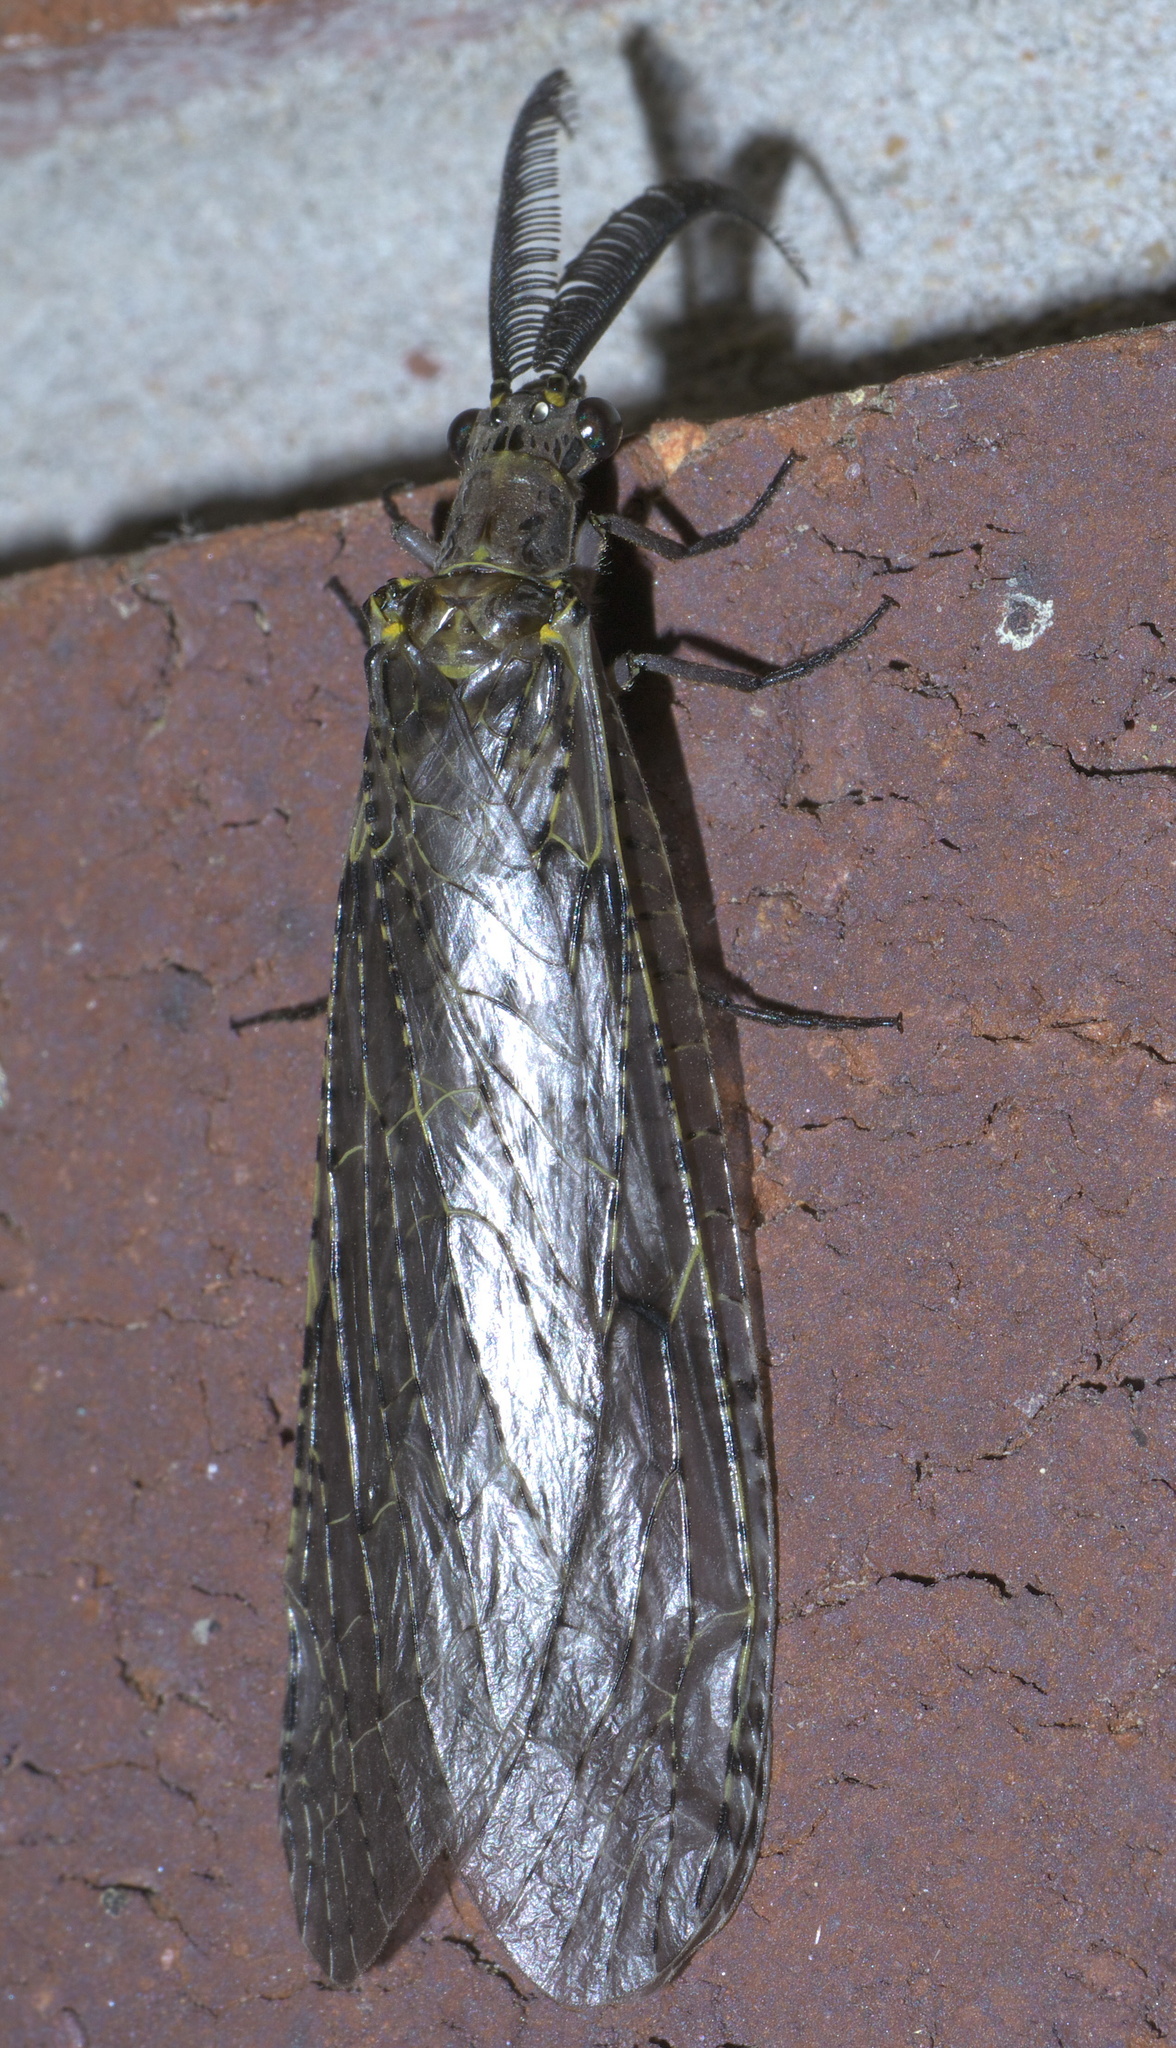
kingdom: Animalia
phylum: Arthropoda
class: Insecta
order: Megaloptera
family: Corydalidae
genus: Chauliodes
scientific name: Chauliodes rastricornis
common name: Spring fishfly
